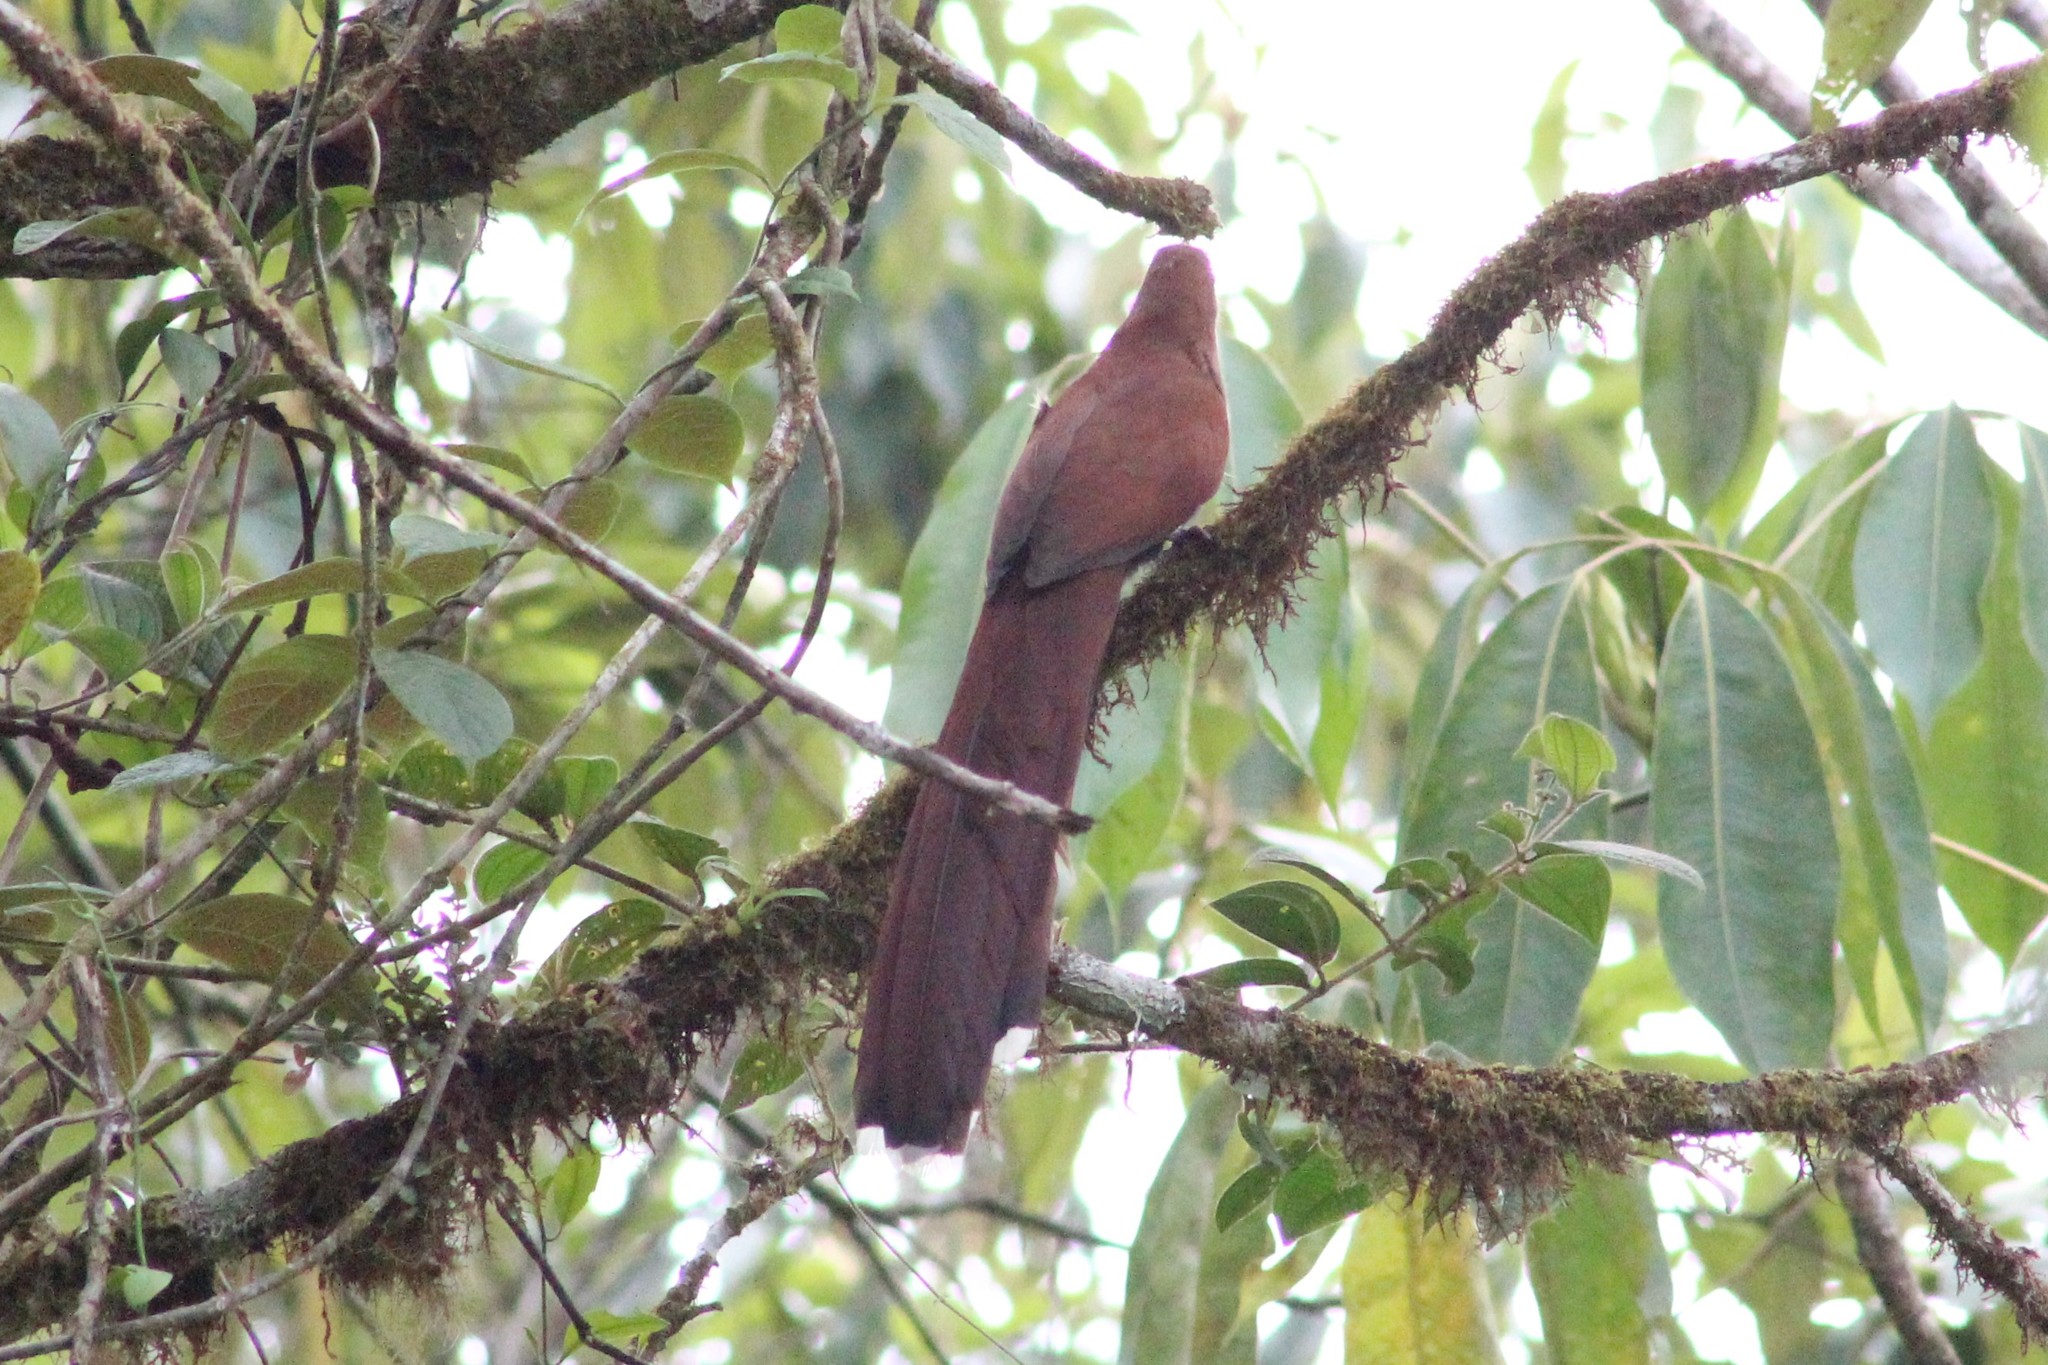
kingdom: Animalia
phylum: Chordata
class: Aves
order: Cuculiformes
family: Cuculidae
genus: Piaya
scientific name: Piaya cayana
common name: Squirrel cuckoo
